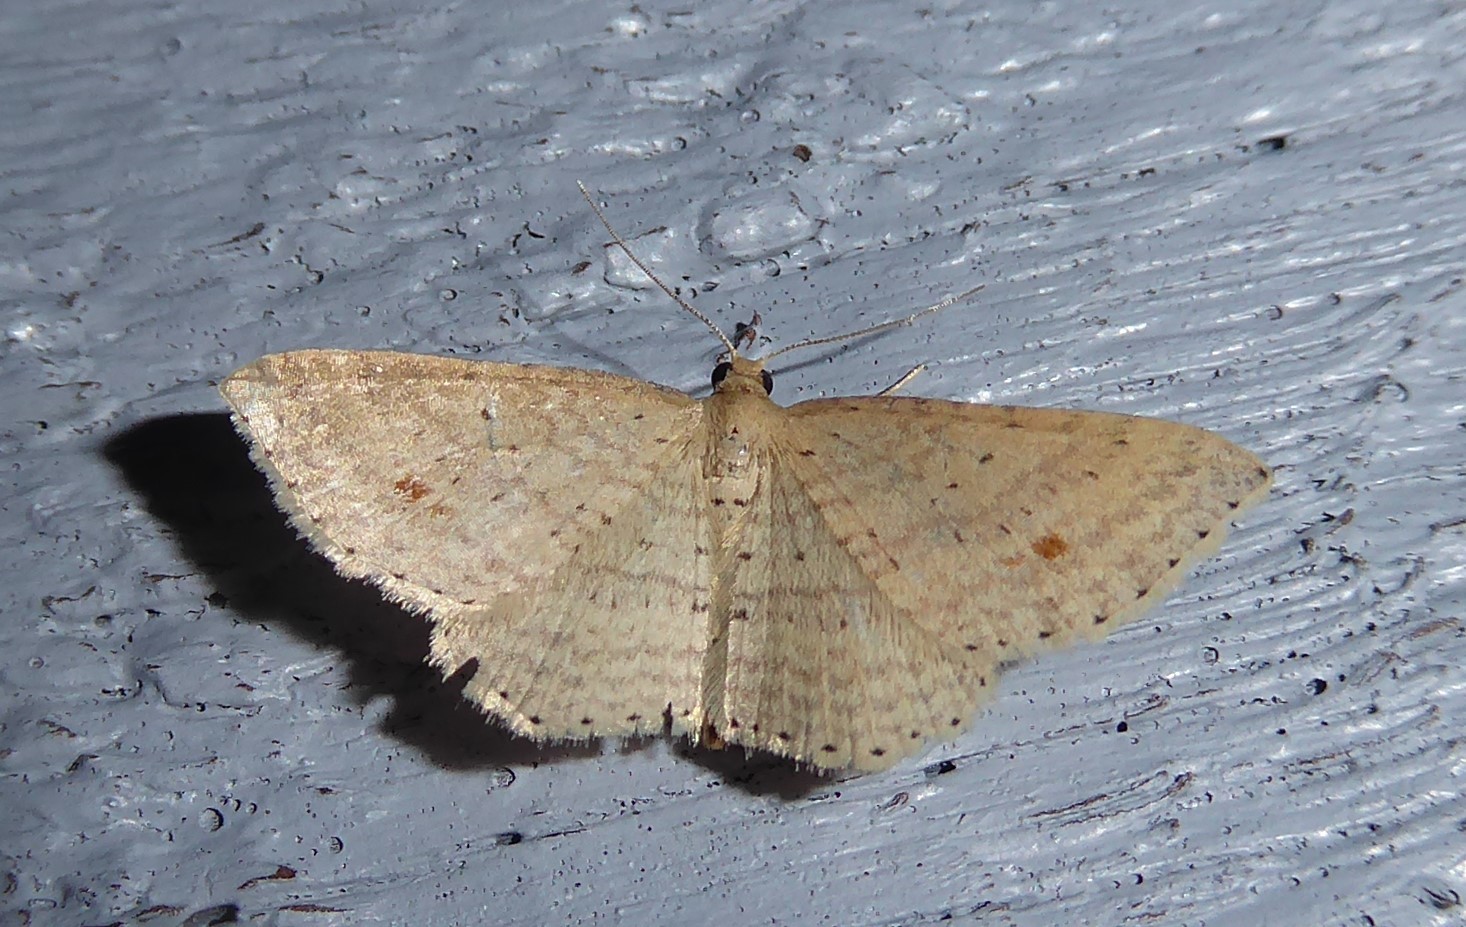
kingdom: Animalia
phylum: Arthropoda
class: Insecta
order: Lepidoptera
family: Geometridae
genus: Epicyme
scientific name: Epicyme rubropunctaria
